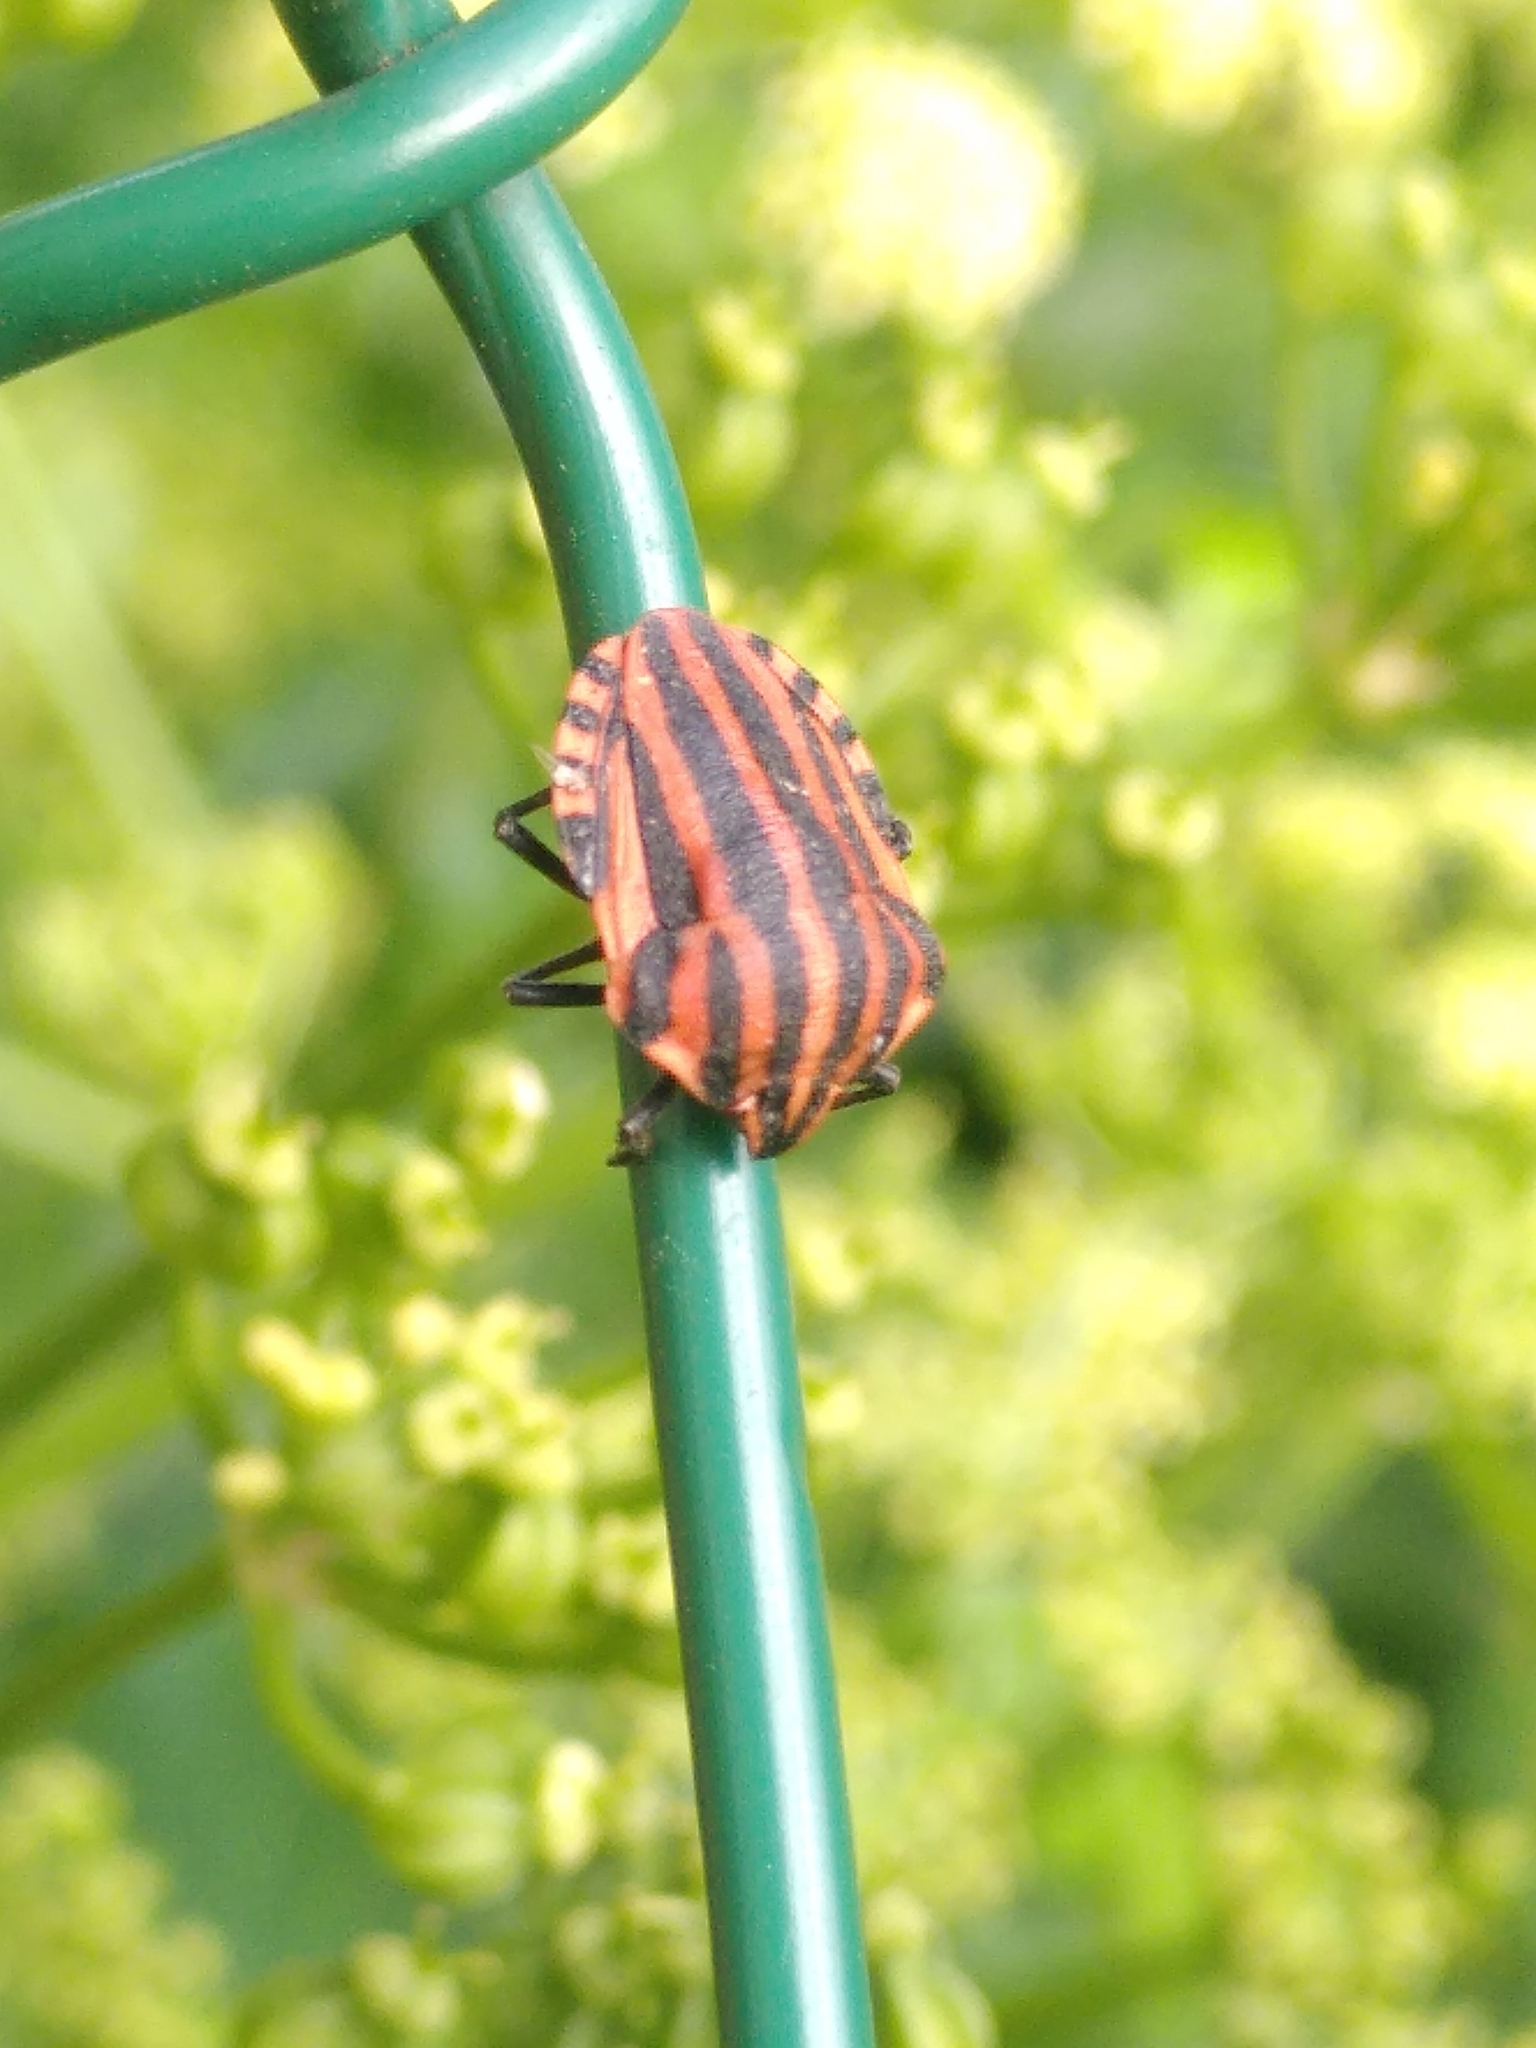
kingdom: Animalia
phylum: Arthropoda
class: Insecta
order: Hemiptera
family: Pentatomidae
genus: Graphosoma
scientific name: Graphosoma italicum
